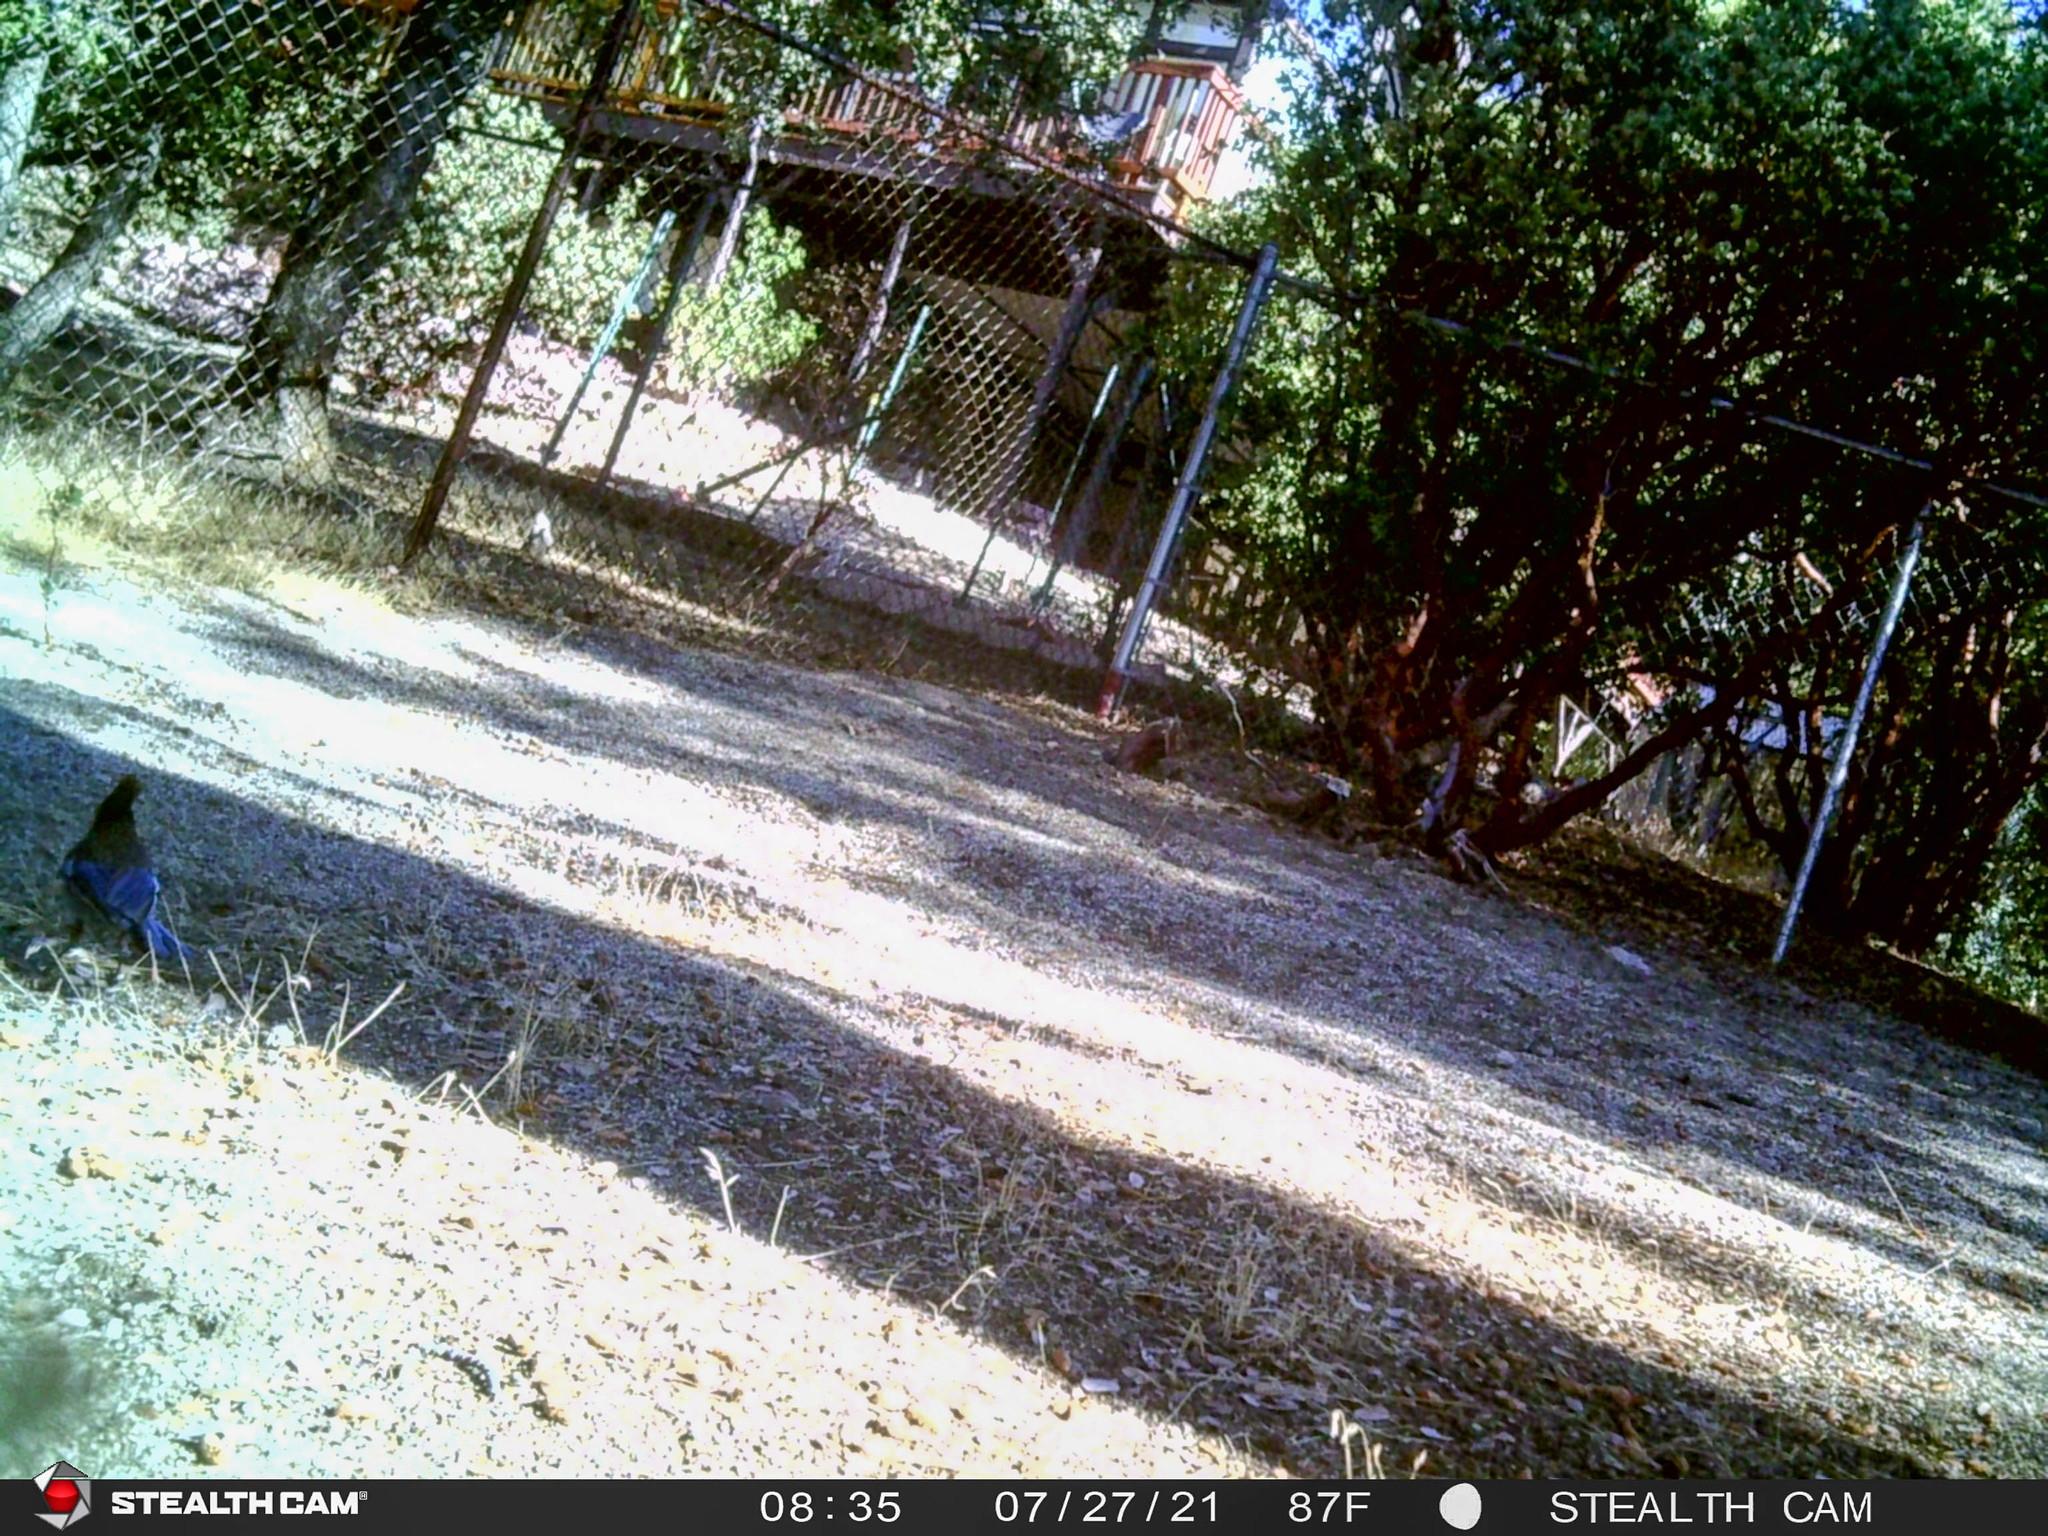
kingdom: Animalia
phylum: Chordata
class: Aves
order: Passeriformes
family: Corvidae
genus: Cyanocitta
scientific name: Cyanocitta stelleri
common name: Steller's jay
